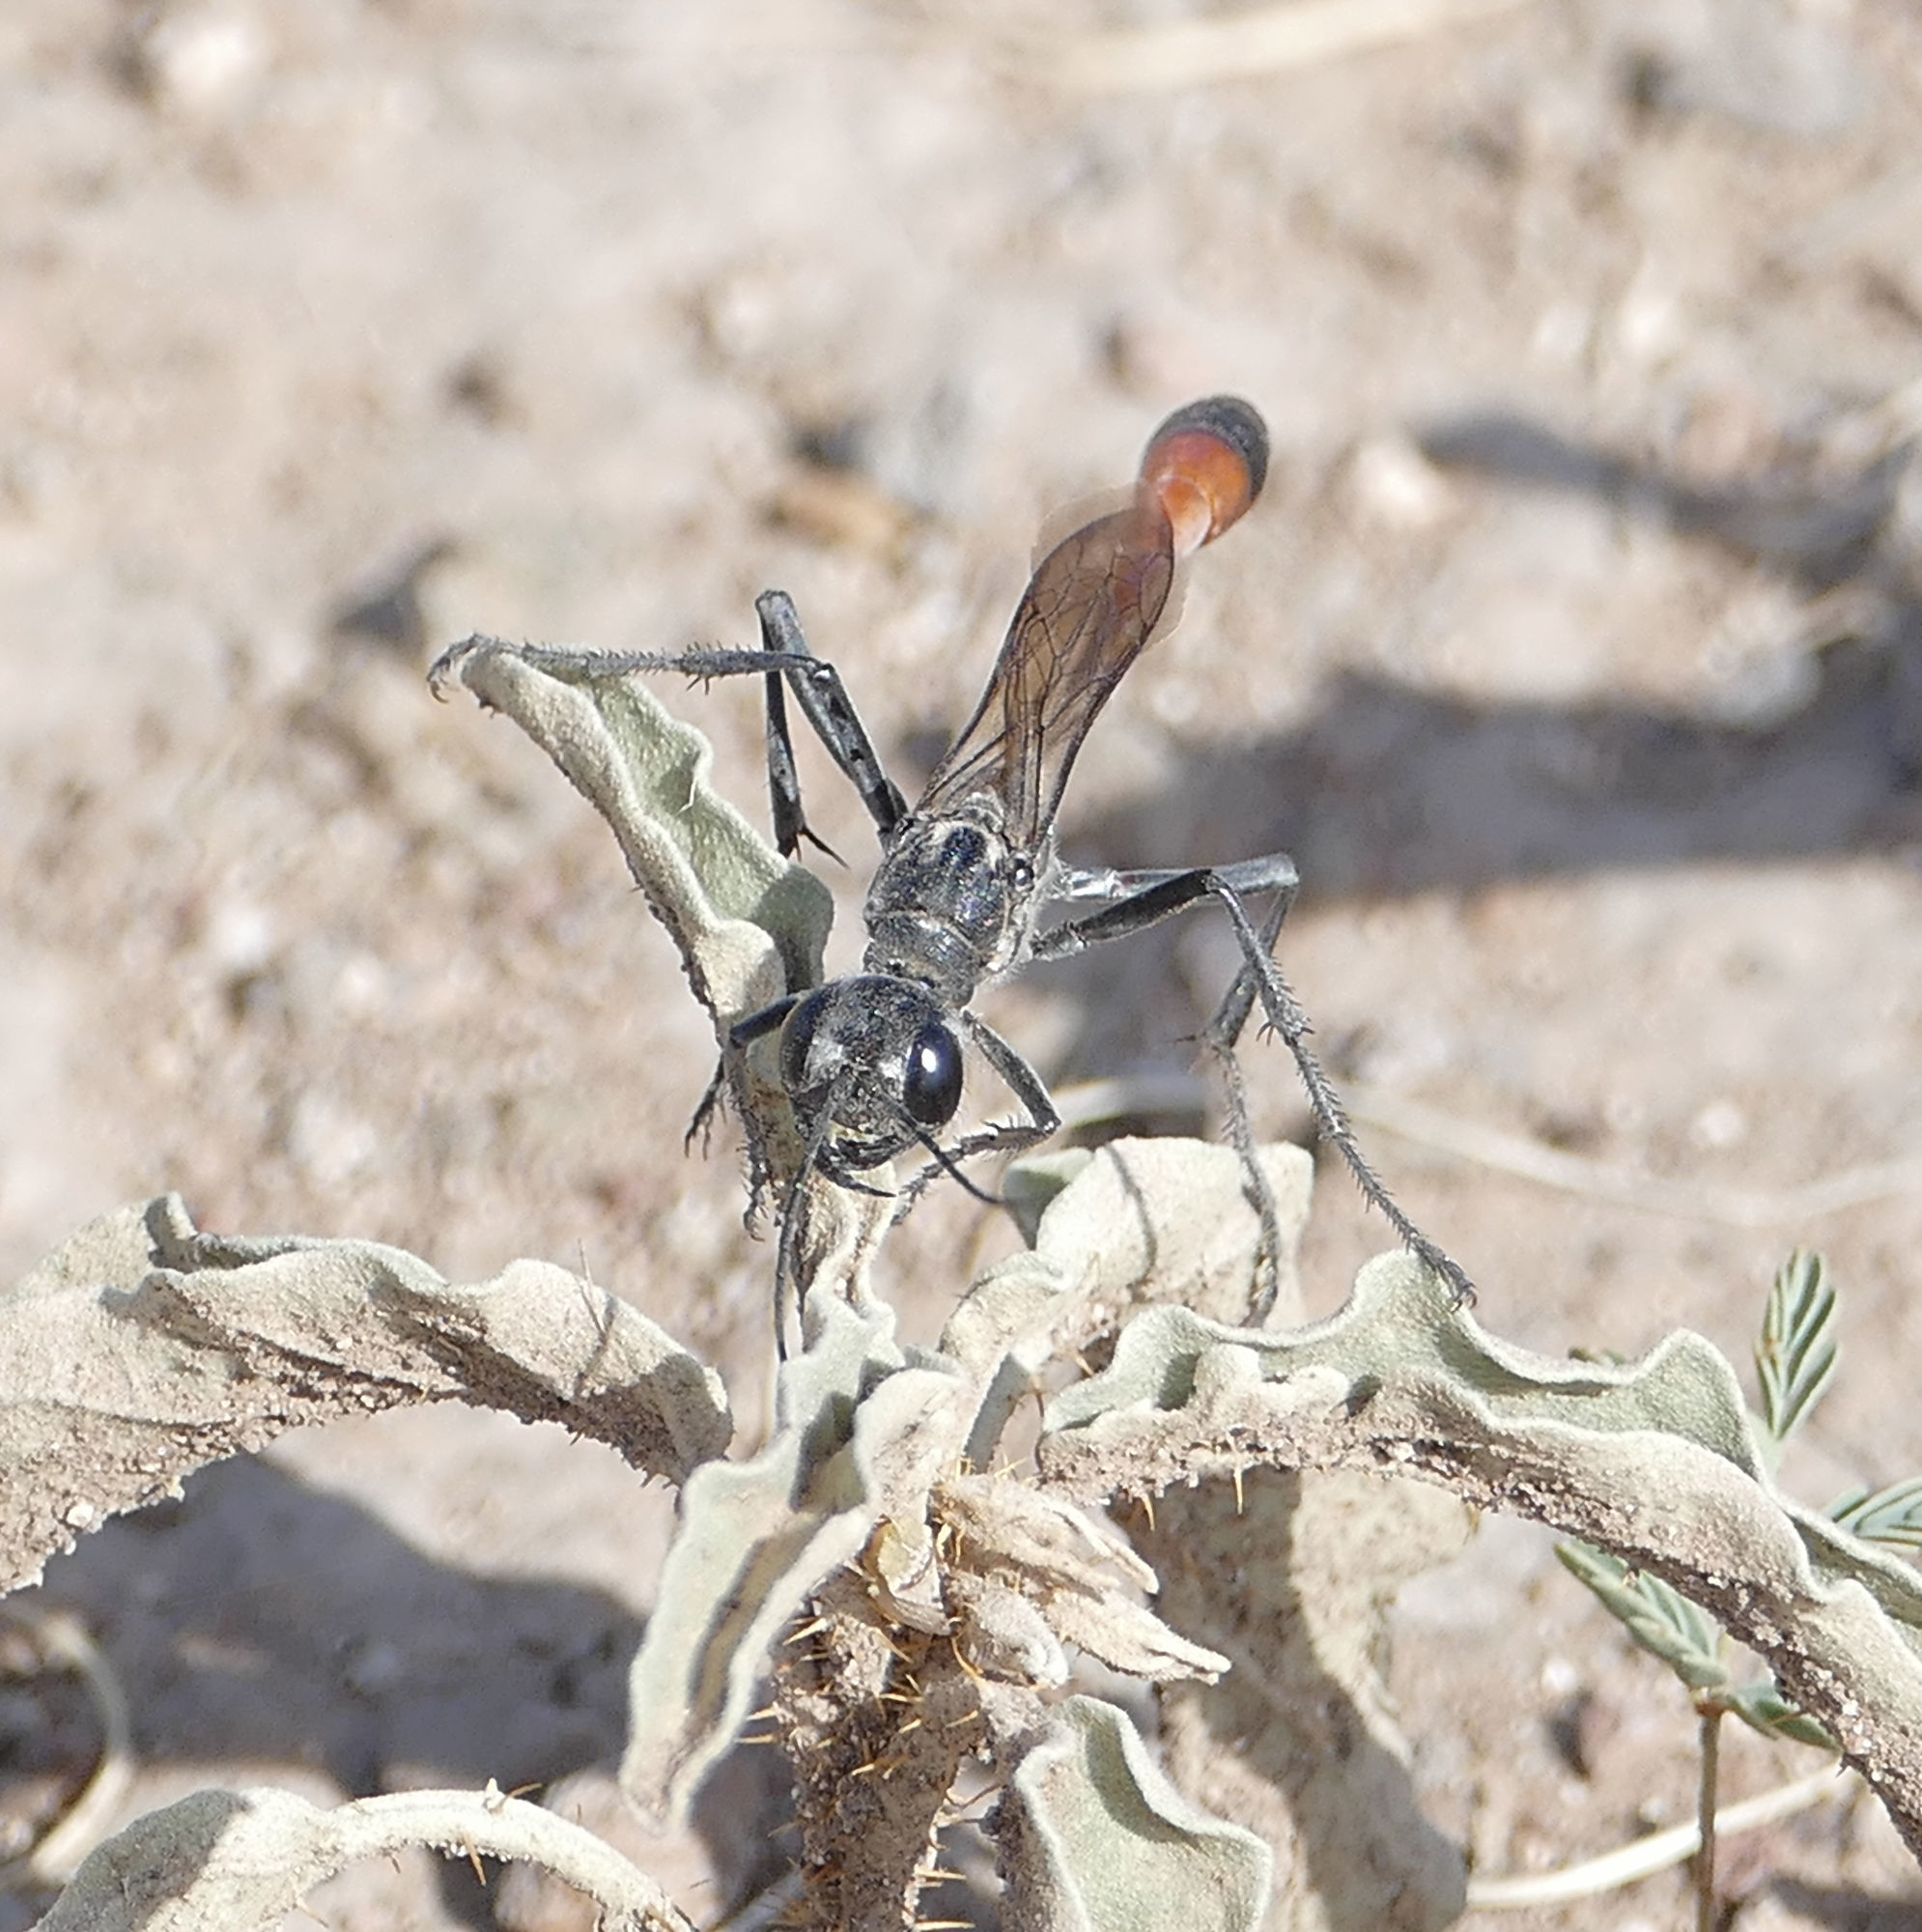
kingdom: Animalia
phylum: Arthropoda
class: Insecta
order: Hymenoptera
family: Sphecidae
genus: Ammophila
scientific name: Ammophila
